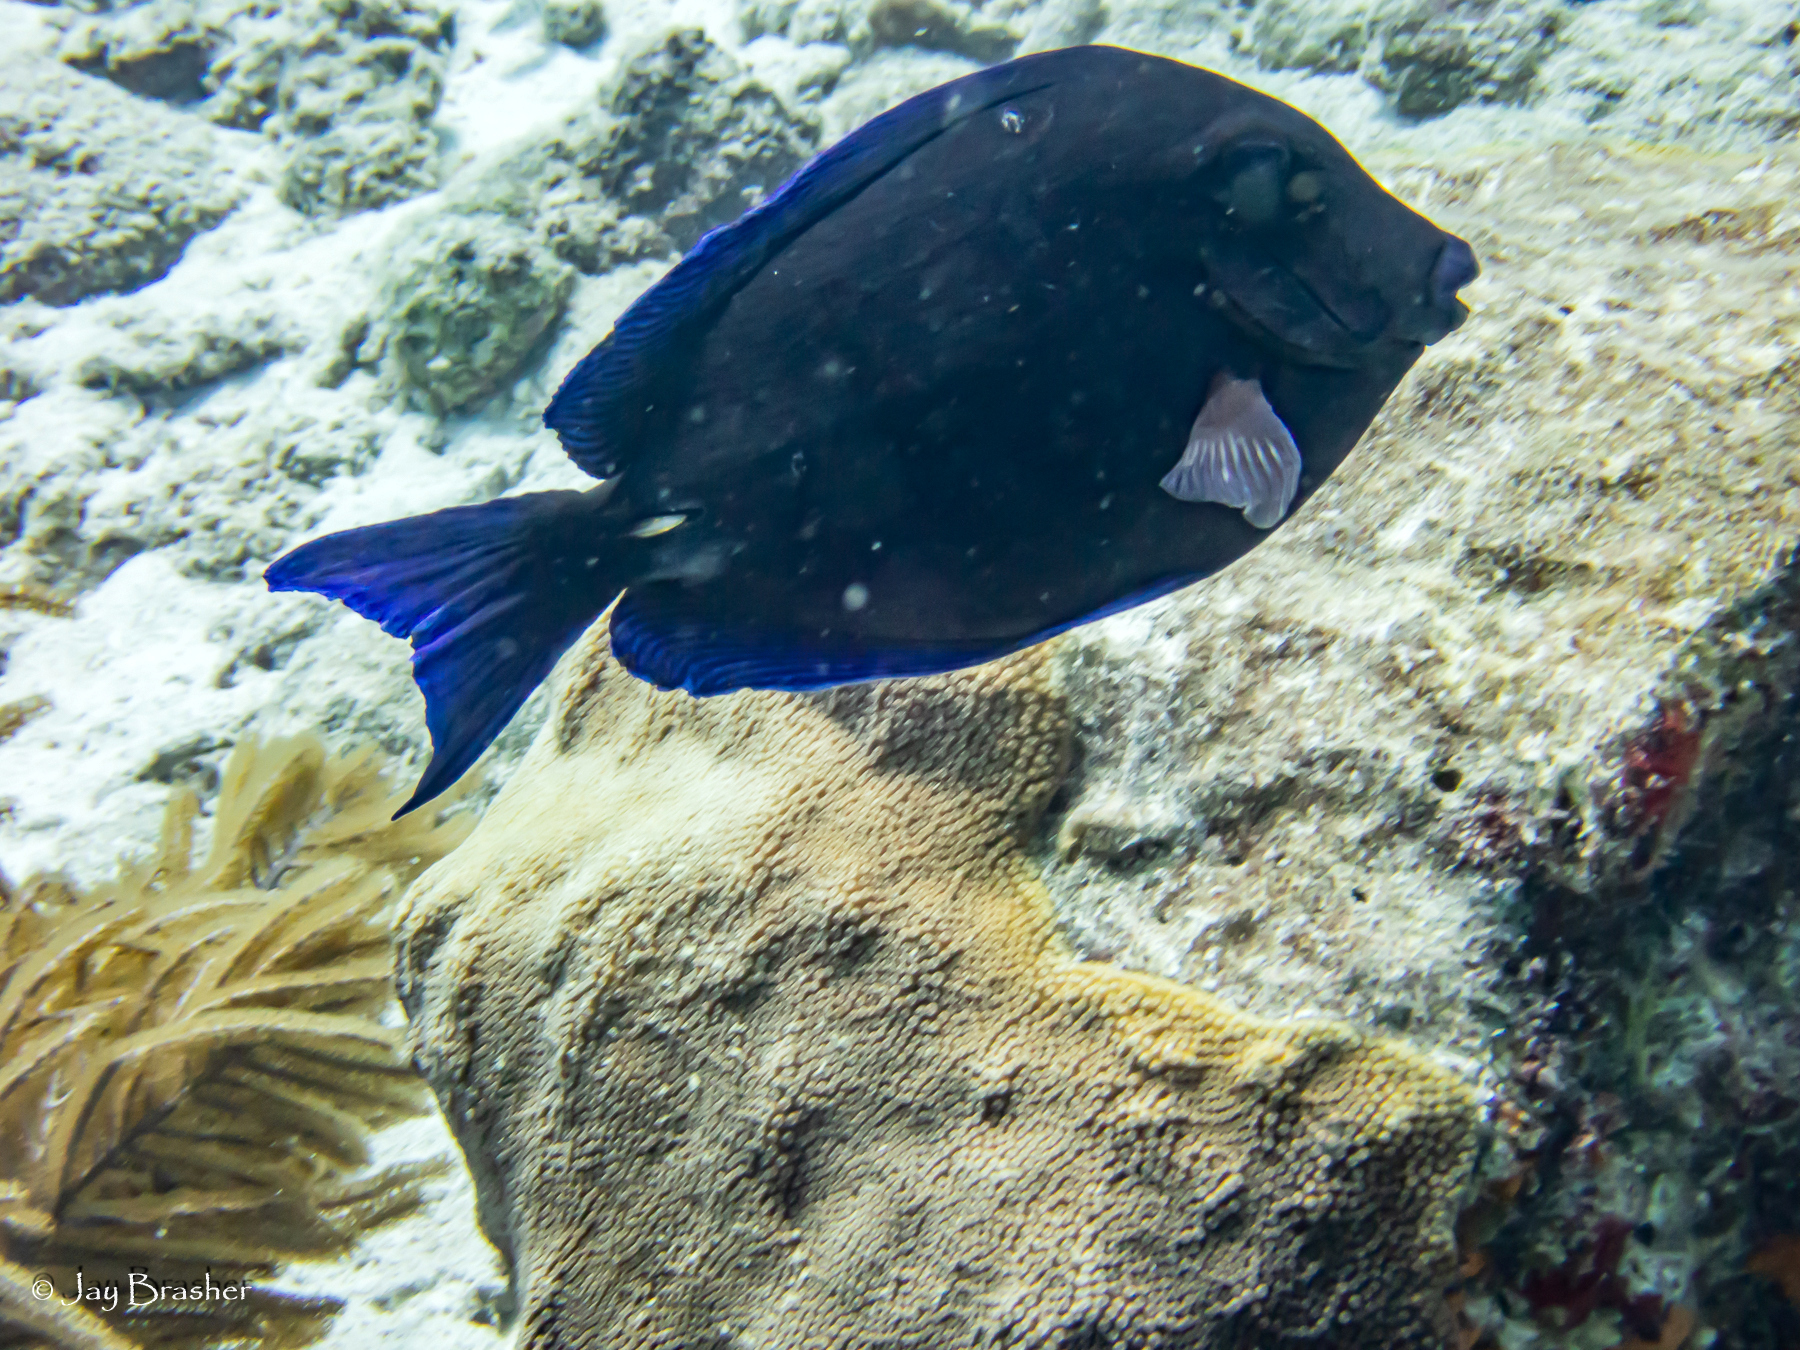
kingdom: Animalia
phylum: Chordata
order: Perciformes
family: Acanthuridae
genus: Acanthurus
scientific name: Acanthurus coeruleus
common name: Blue tang
